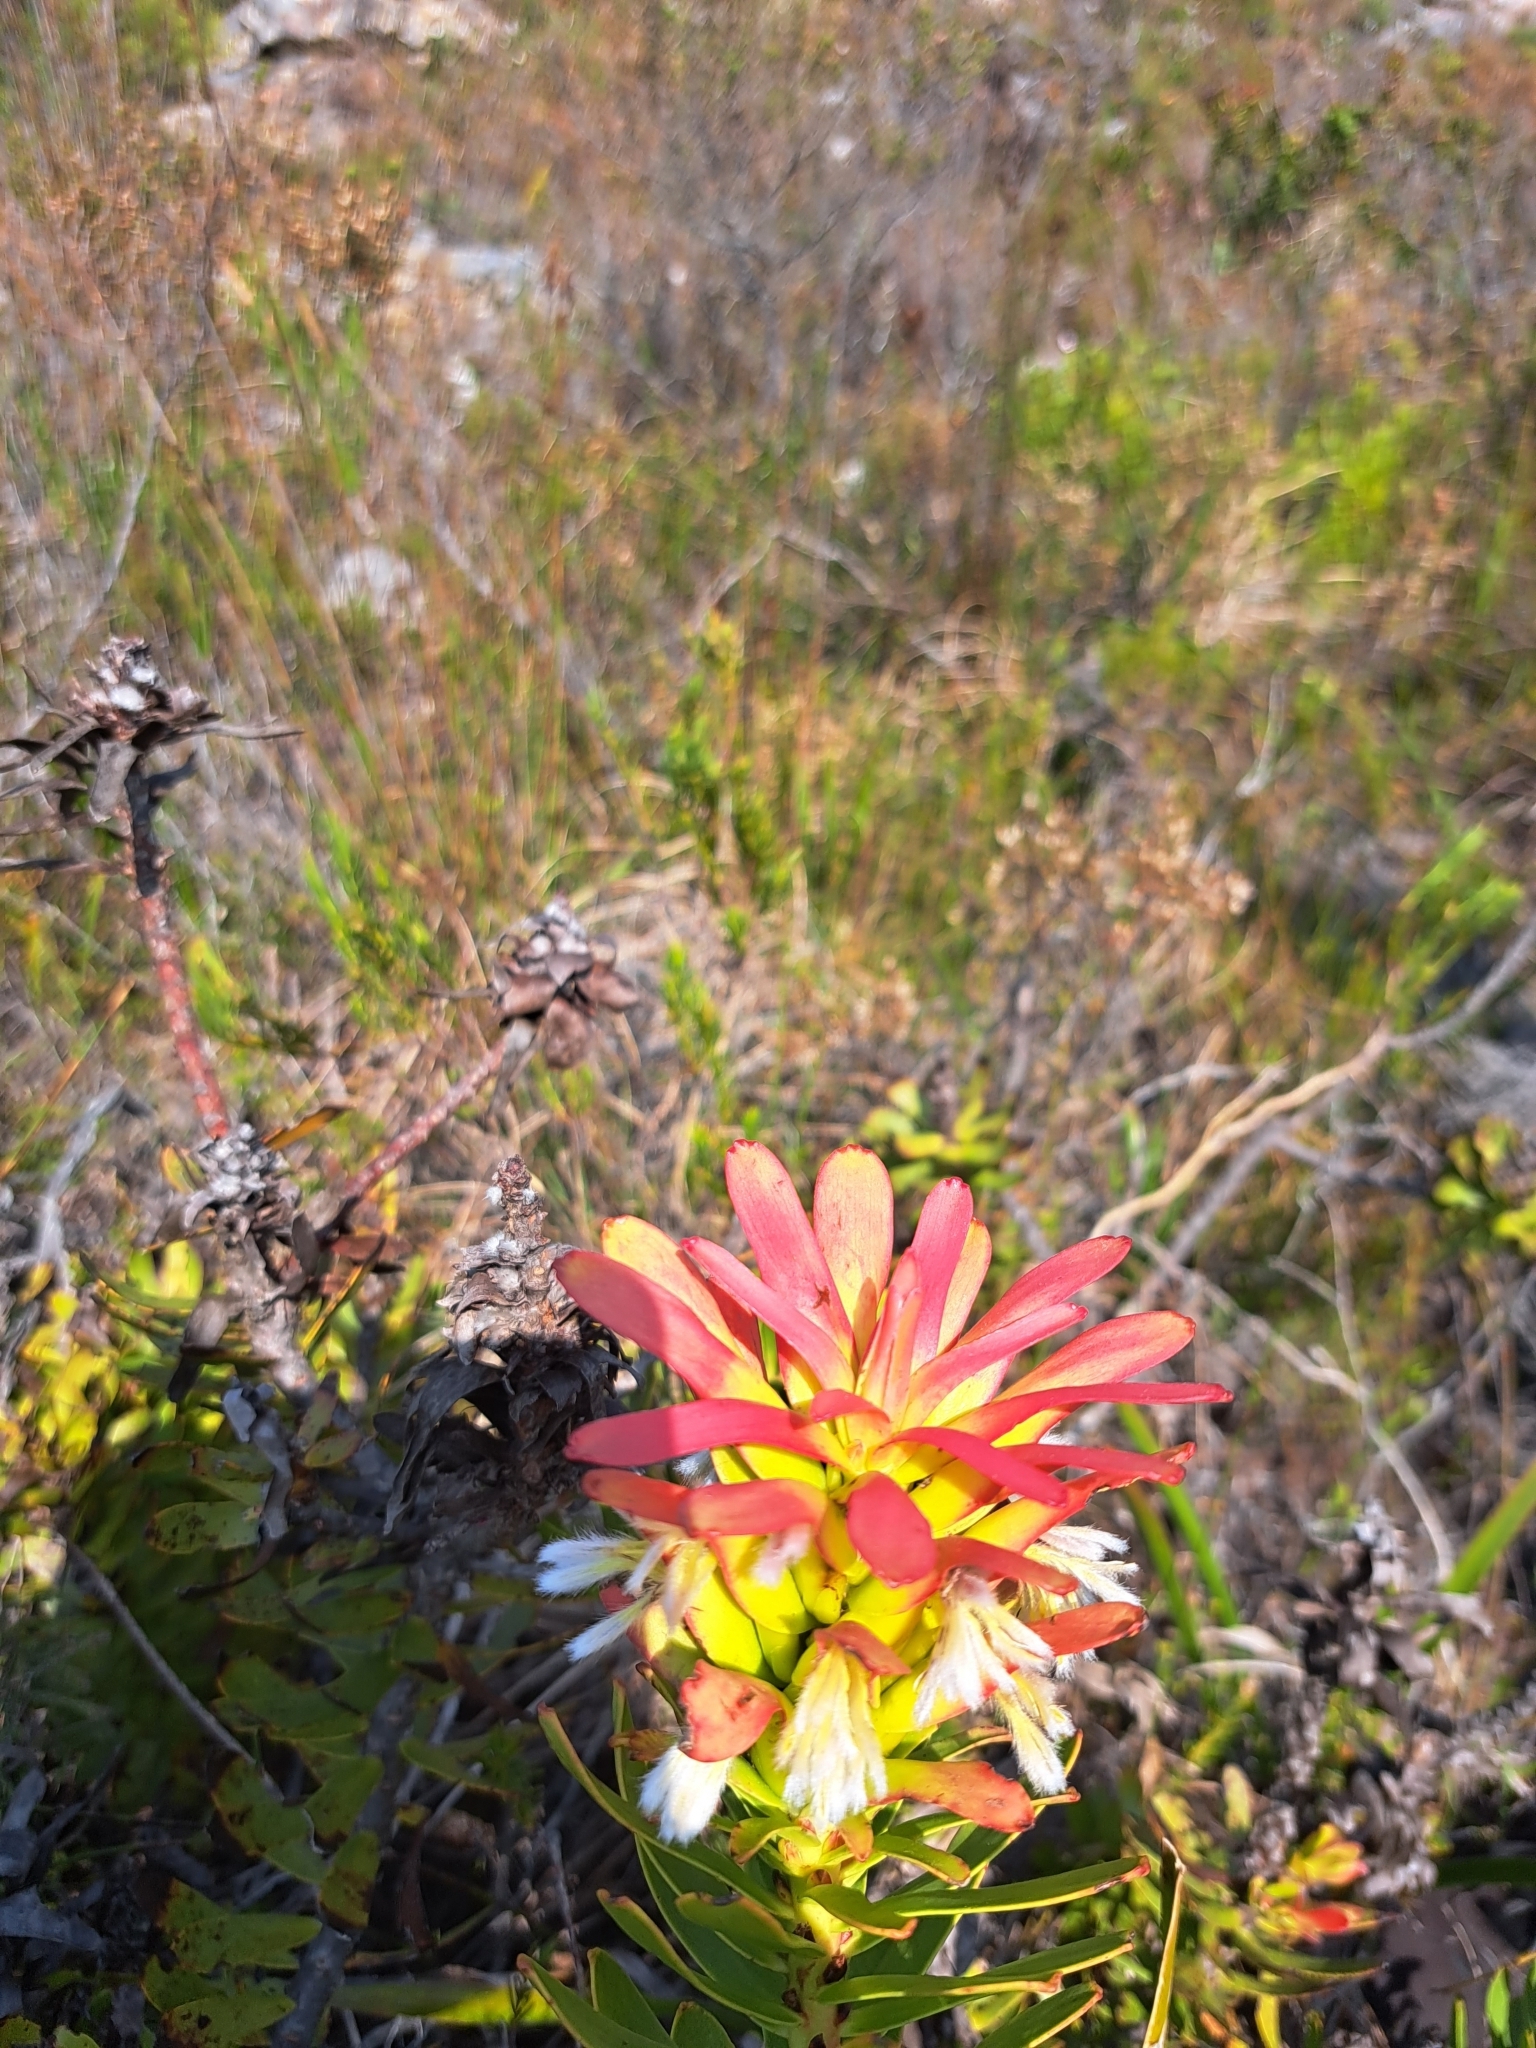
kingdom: Plantae
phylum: Tracheophyta
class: Magnoliopsida
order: Proteales
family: Proteaceae
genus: Mimetes
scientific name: Mimetes cucullatus
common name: Common pagoda
